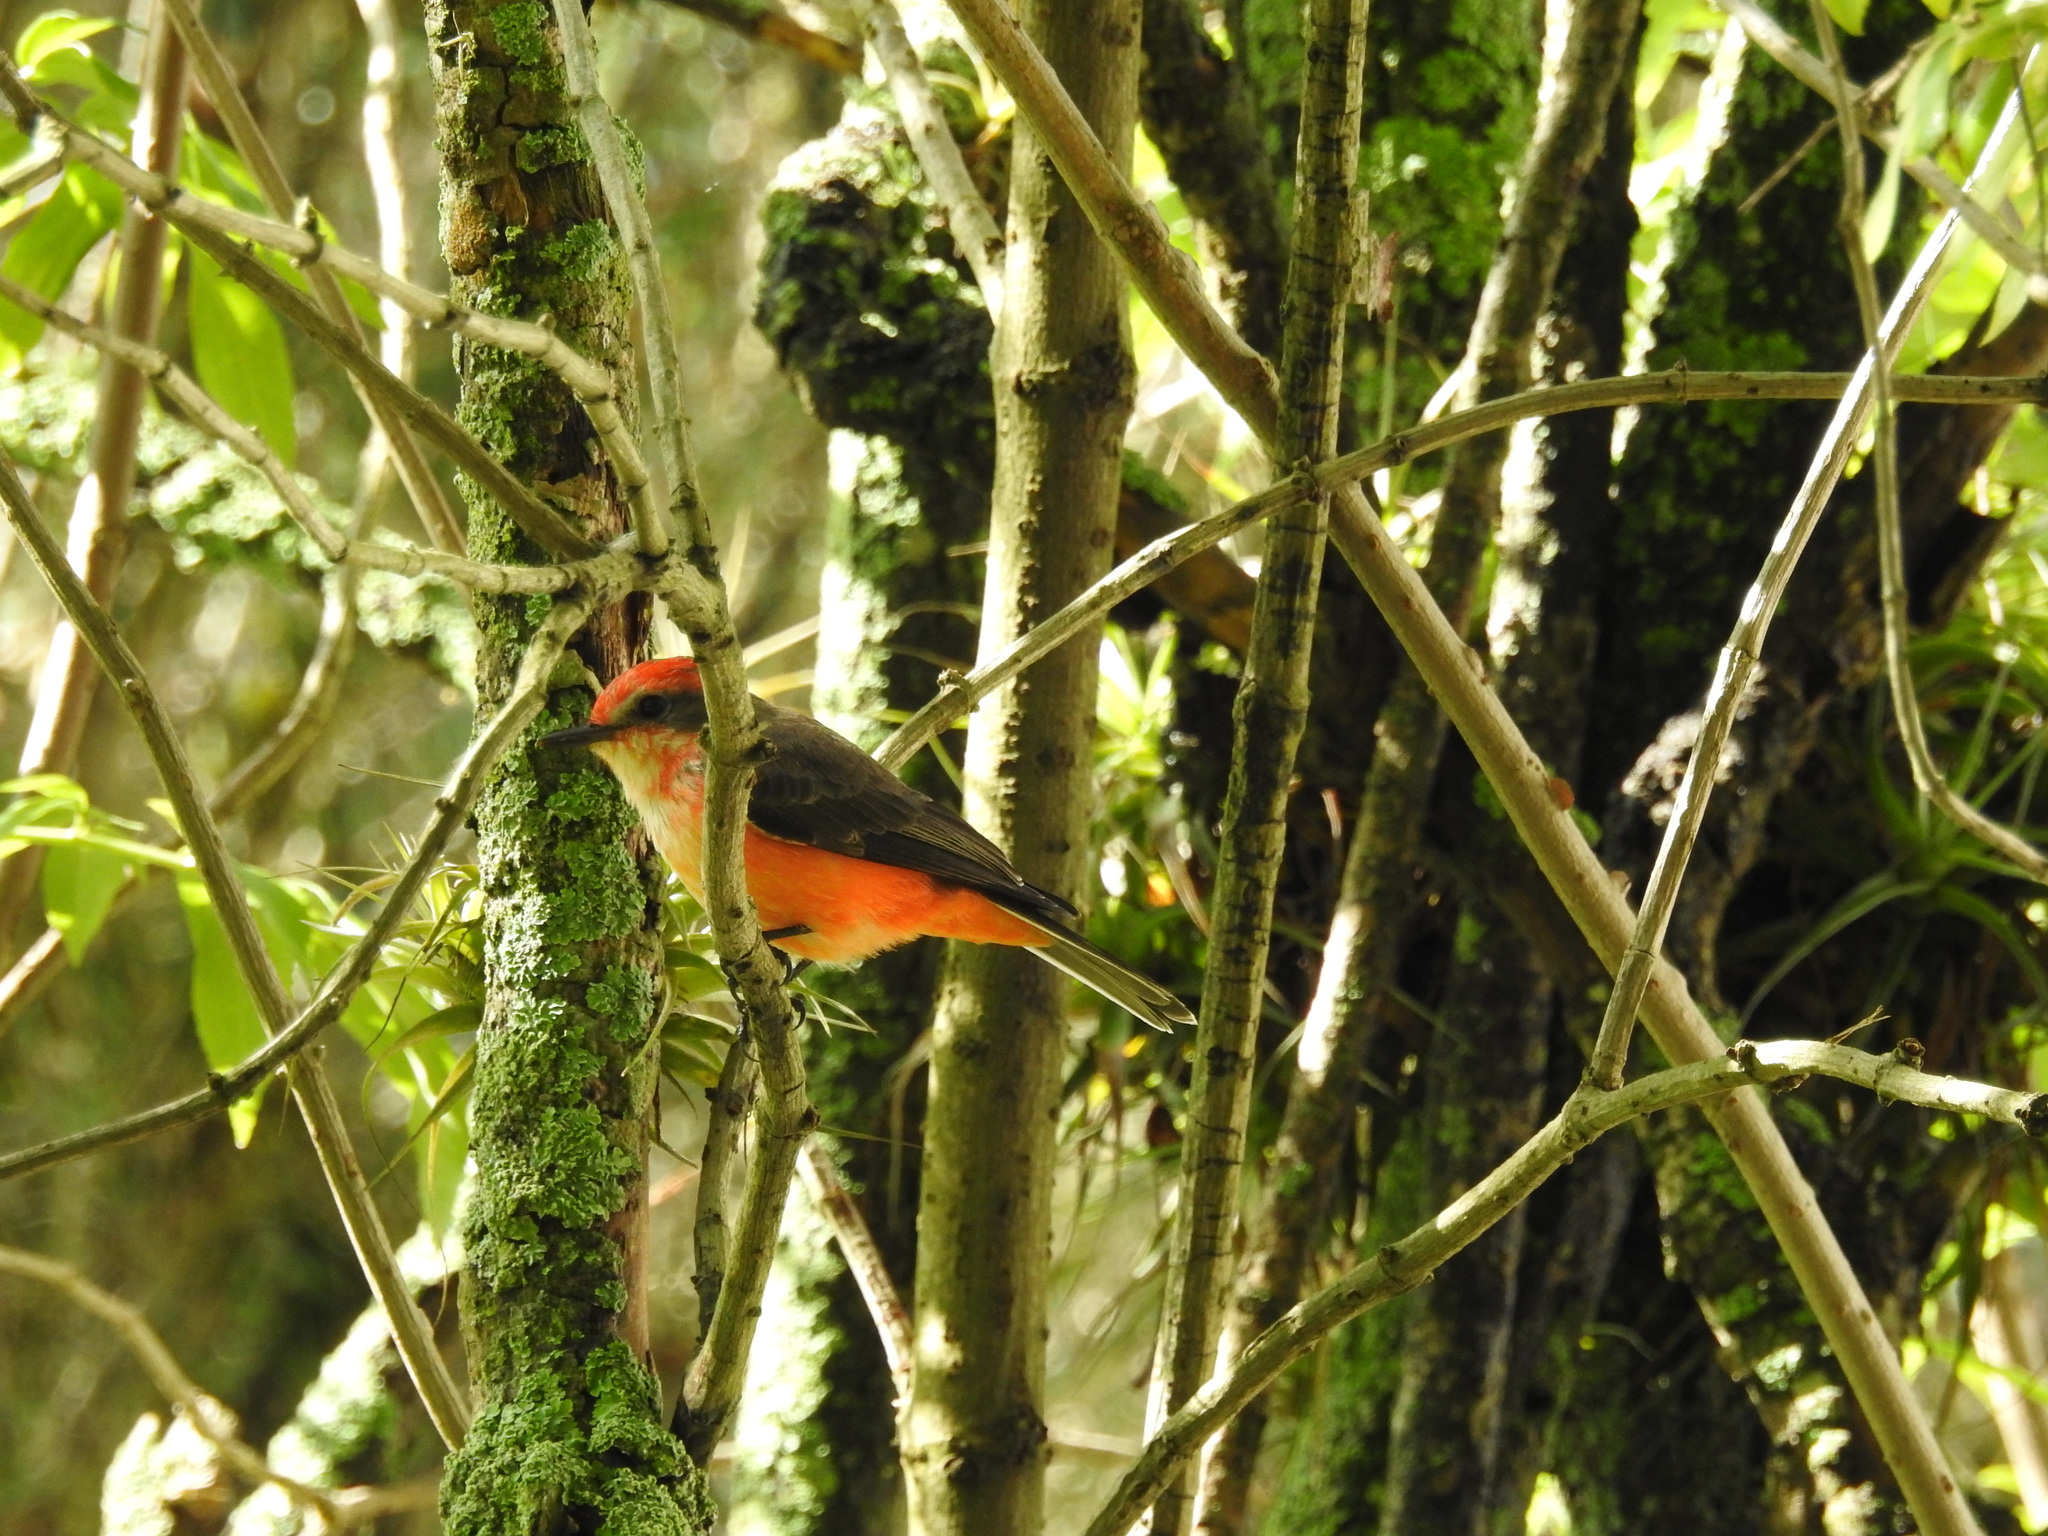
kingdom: Animalia
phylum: Chordata
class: Aves
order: Passeriformes
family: Tyrannidae
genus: Pyrocephalus
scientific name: Pyrocephalus rubinus
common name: Vermilion flycatcher
